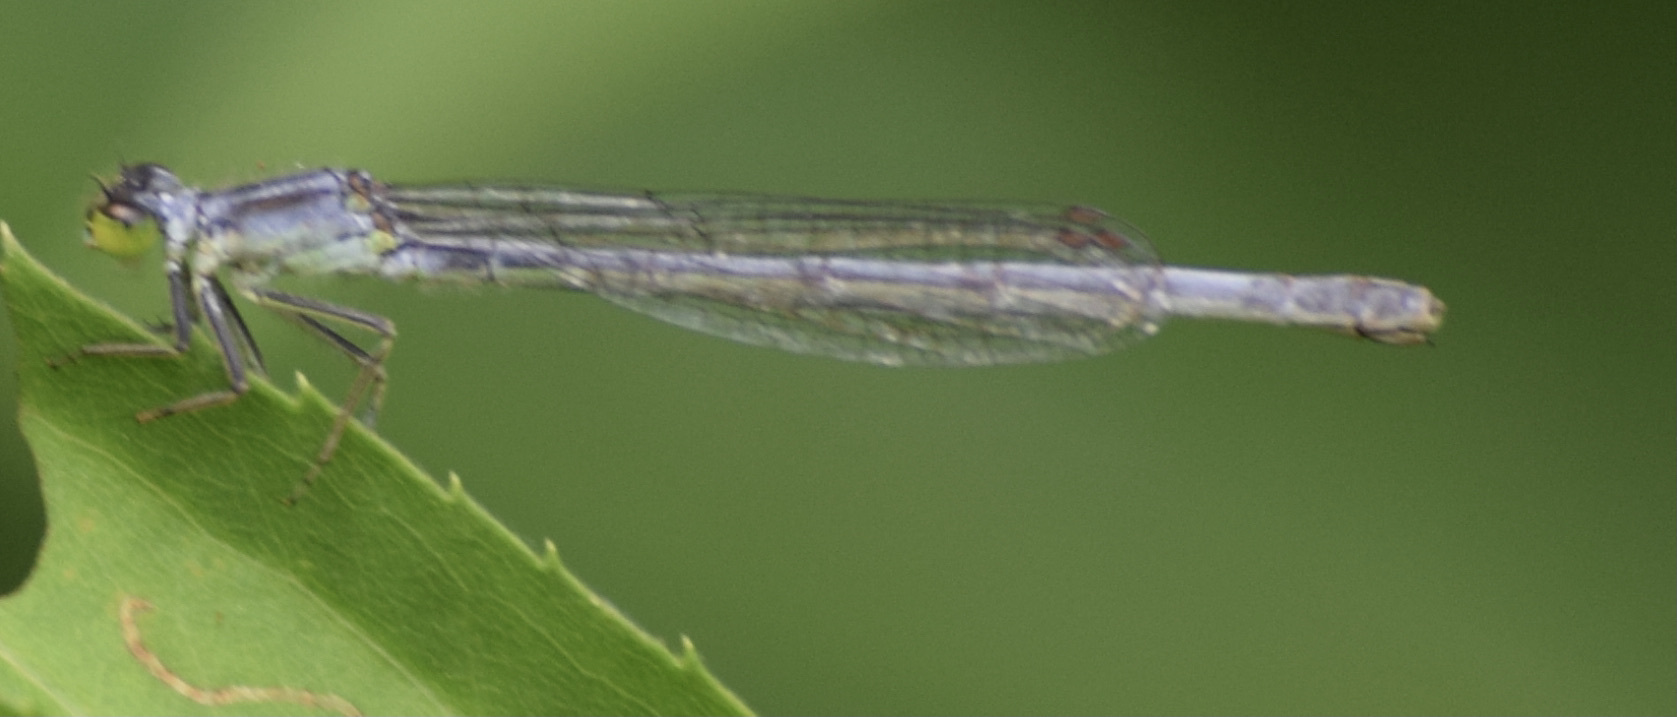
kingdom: Animalia
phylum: Arthropoda
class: Insecta
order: Odonata
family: Coenagrionidae
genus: Ischnura
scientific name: Ischnura verticalis
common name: Eastern forktail
